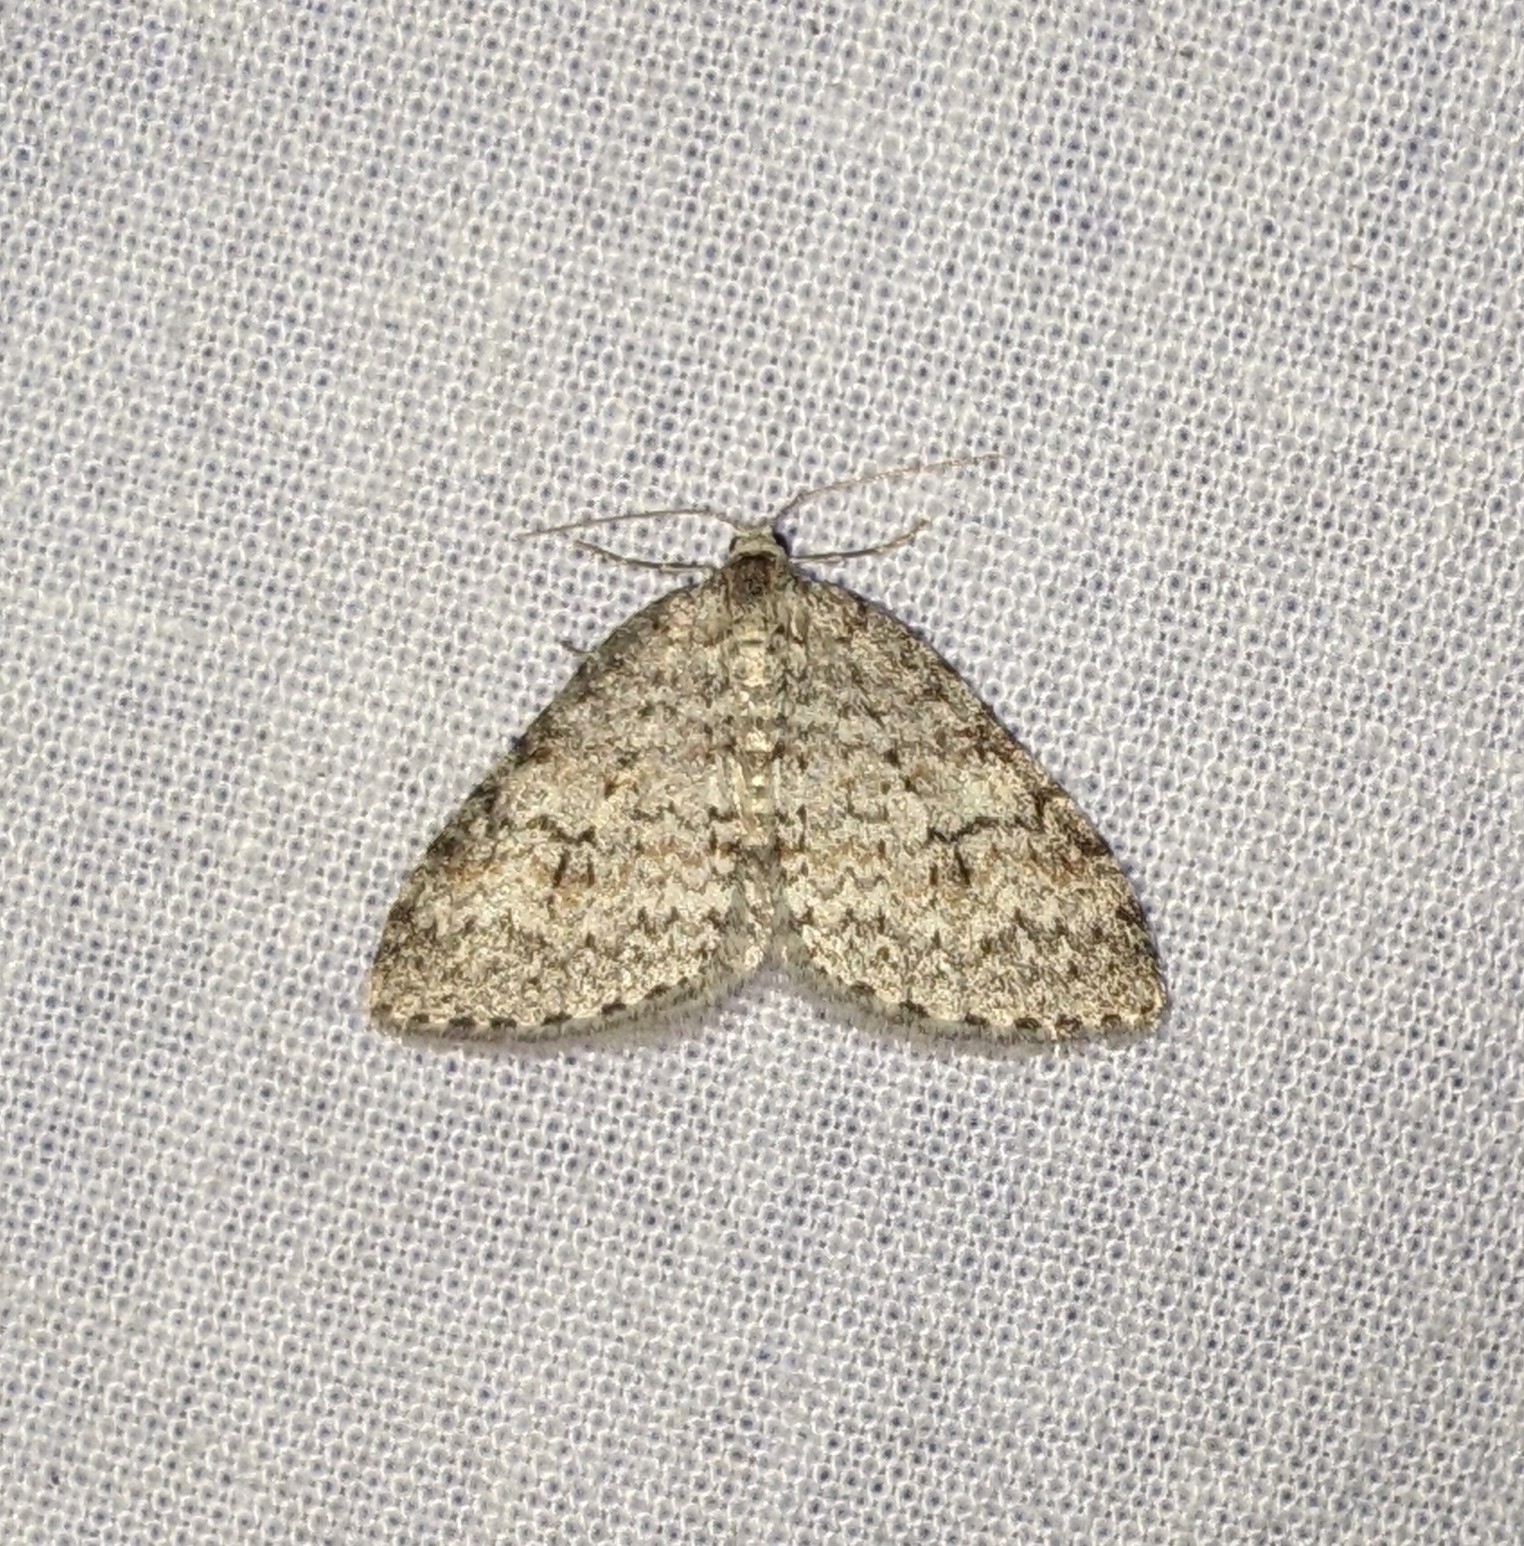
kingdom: Animalia
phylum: Arthropoda
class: Insecta
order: Lepidoptera
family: Geometridae
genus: Venusia
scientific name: Venusia pearsalli
